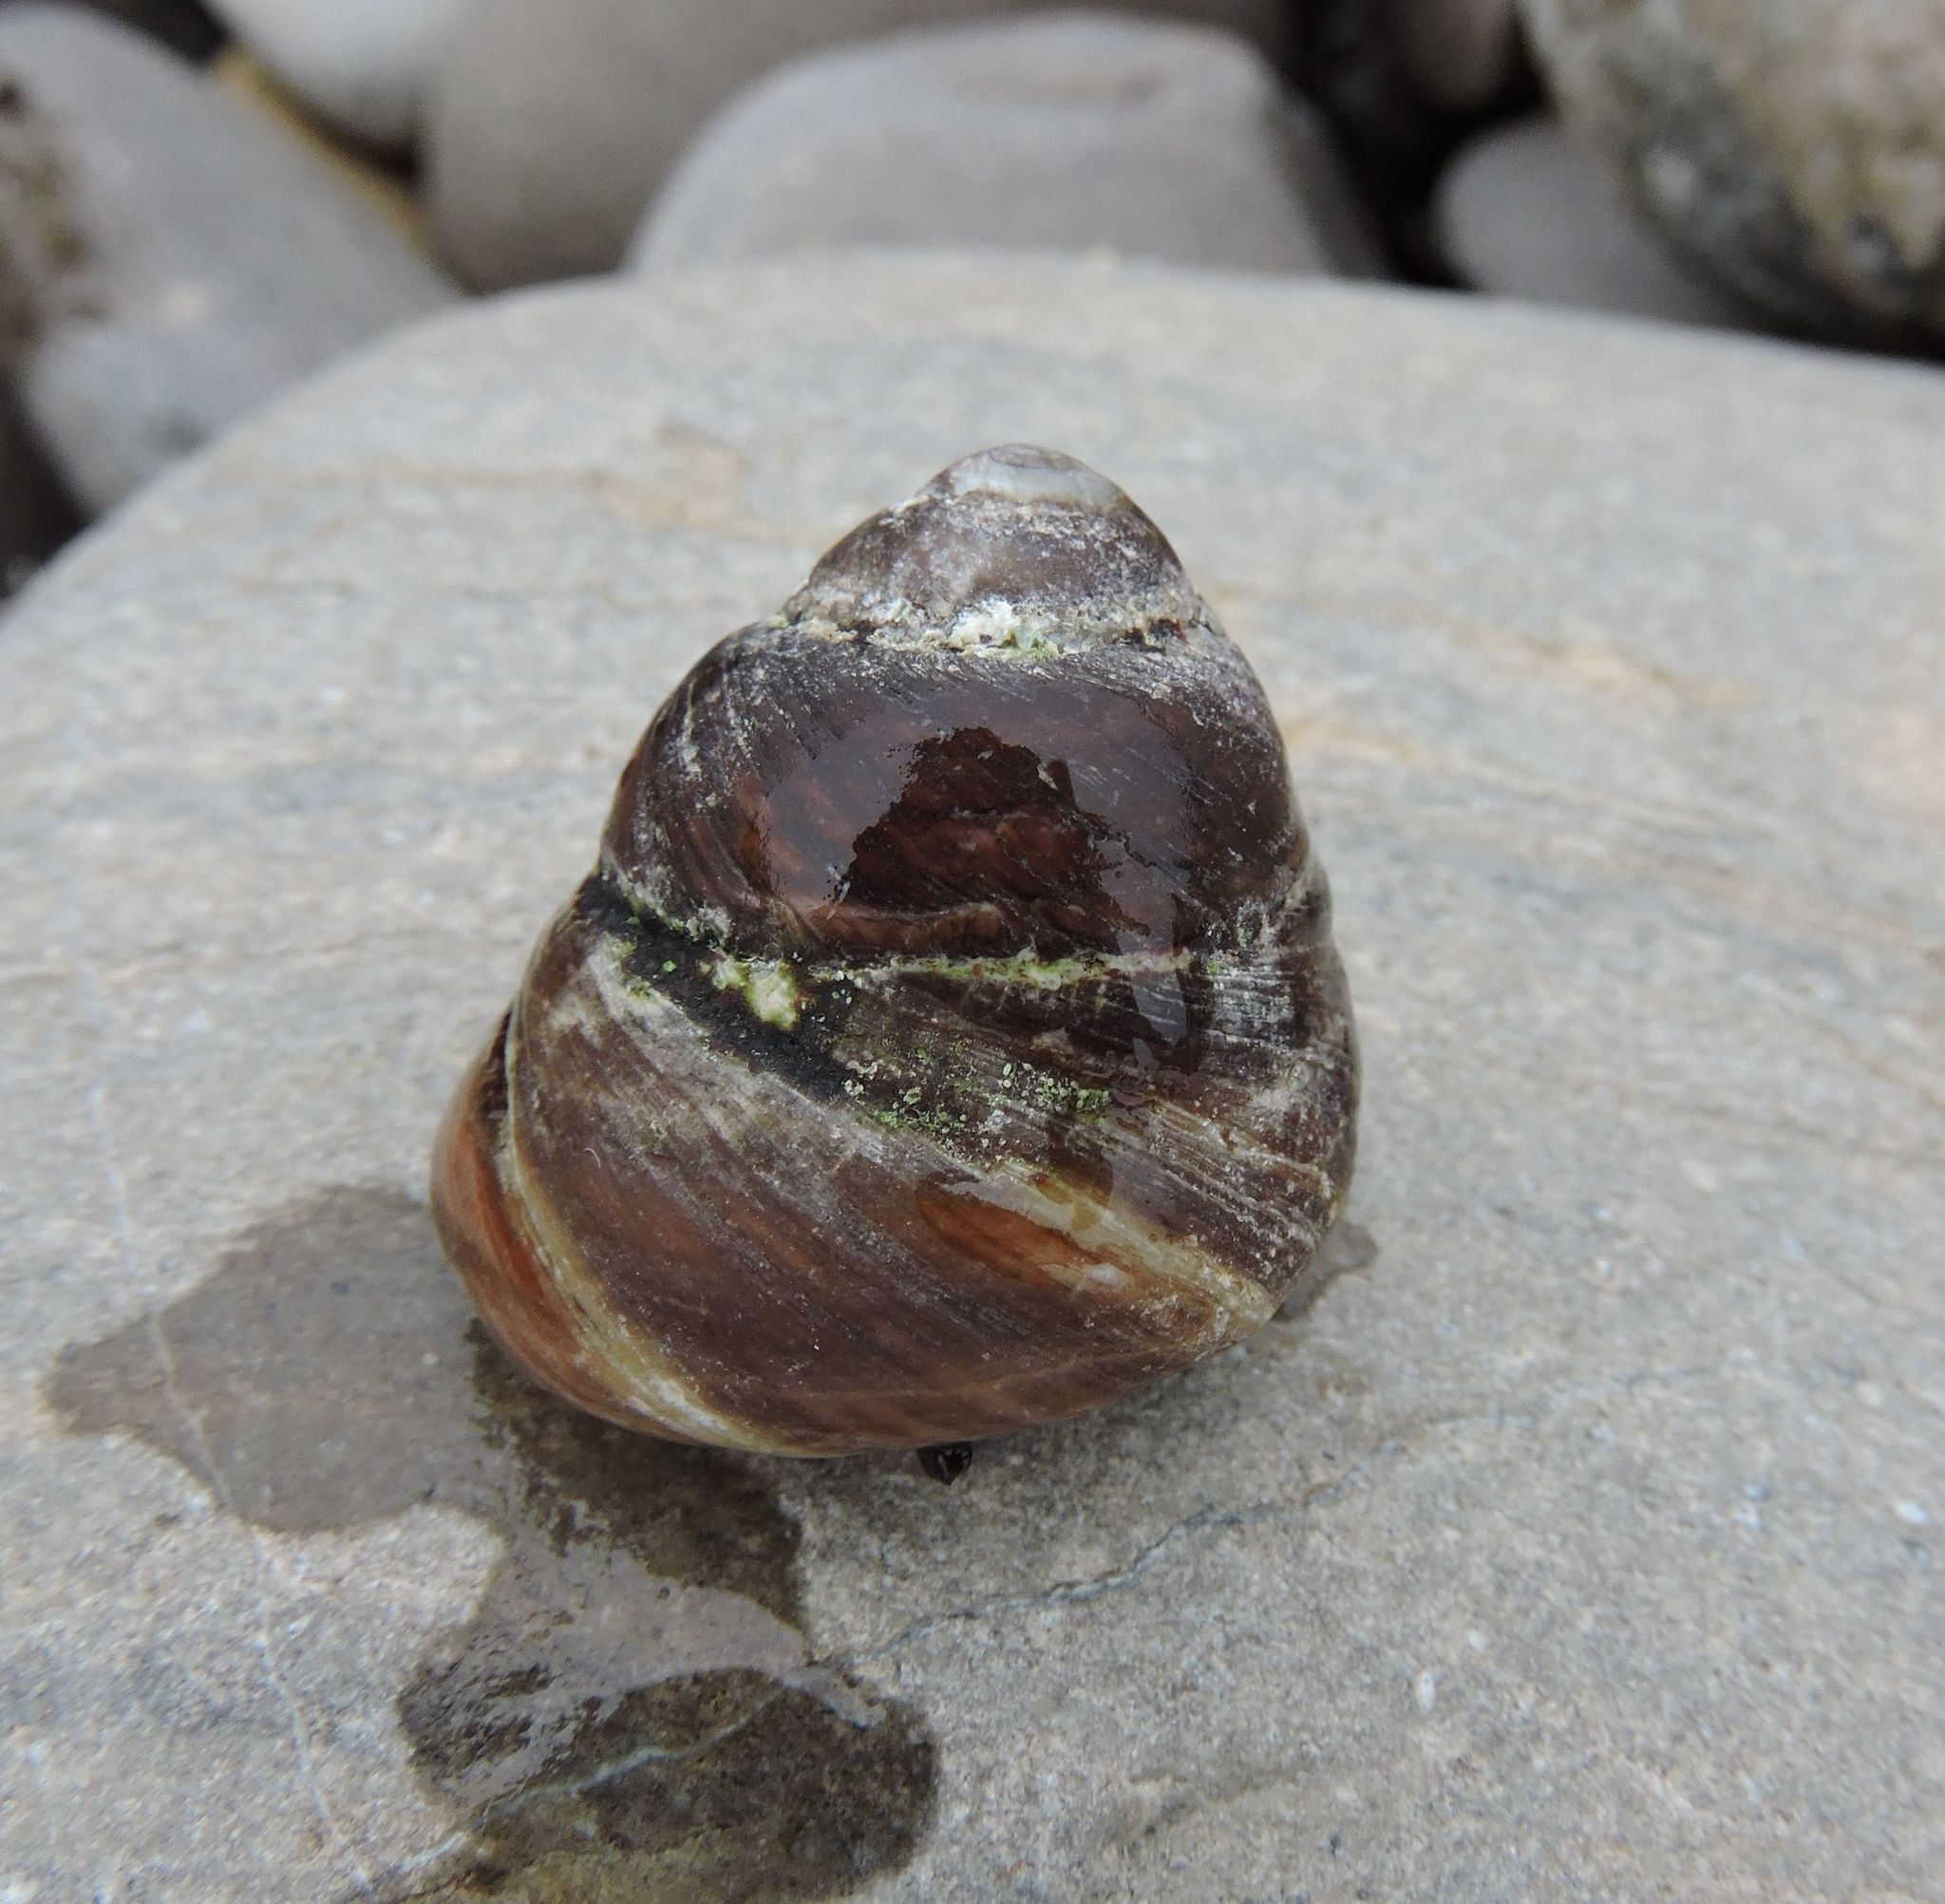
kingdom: Animalia
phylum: Mollusca
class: Gastropoda
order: Trochida
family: Tegulidae
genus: Tegula
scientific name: Tegula brunnea
